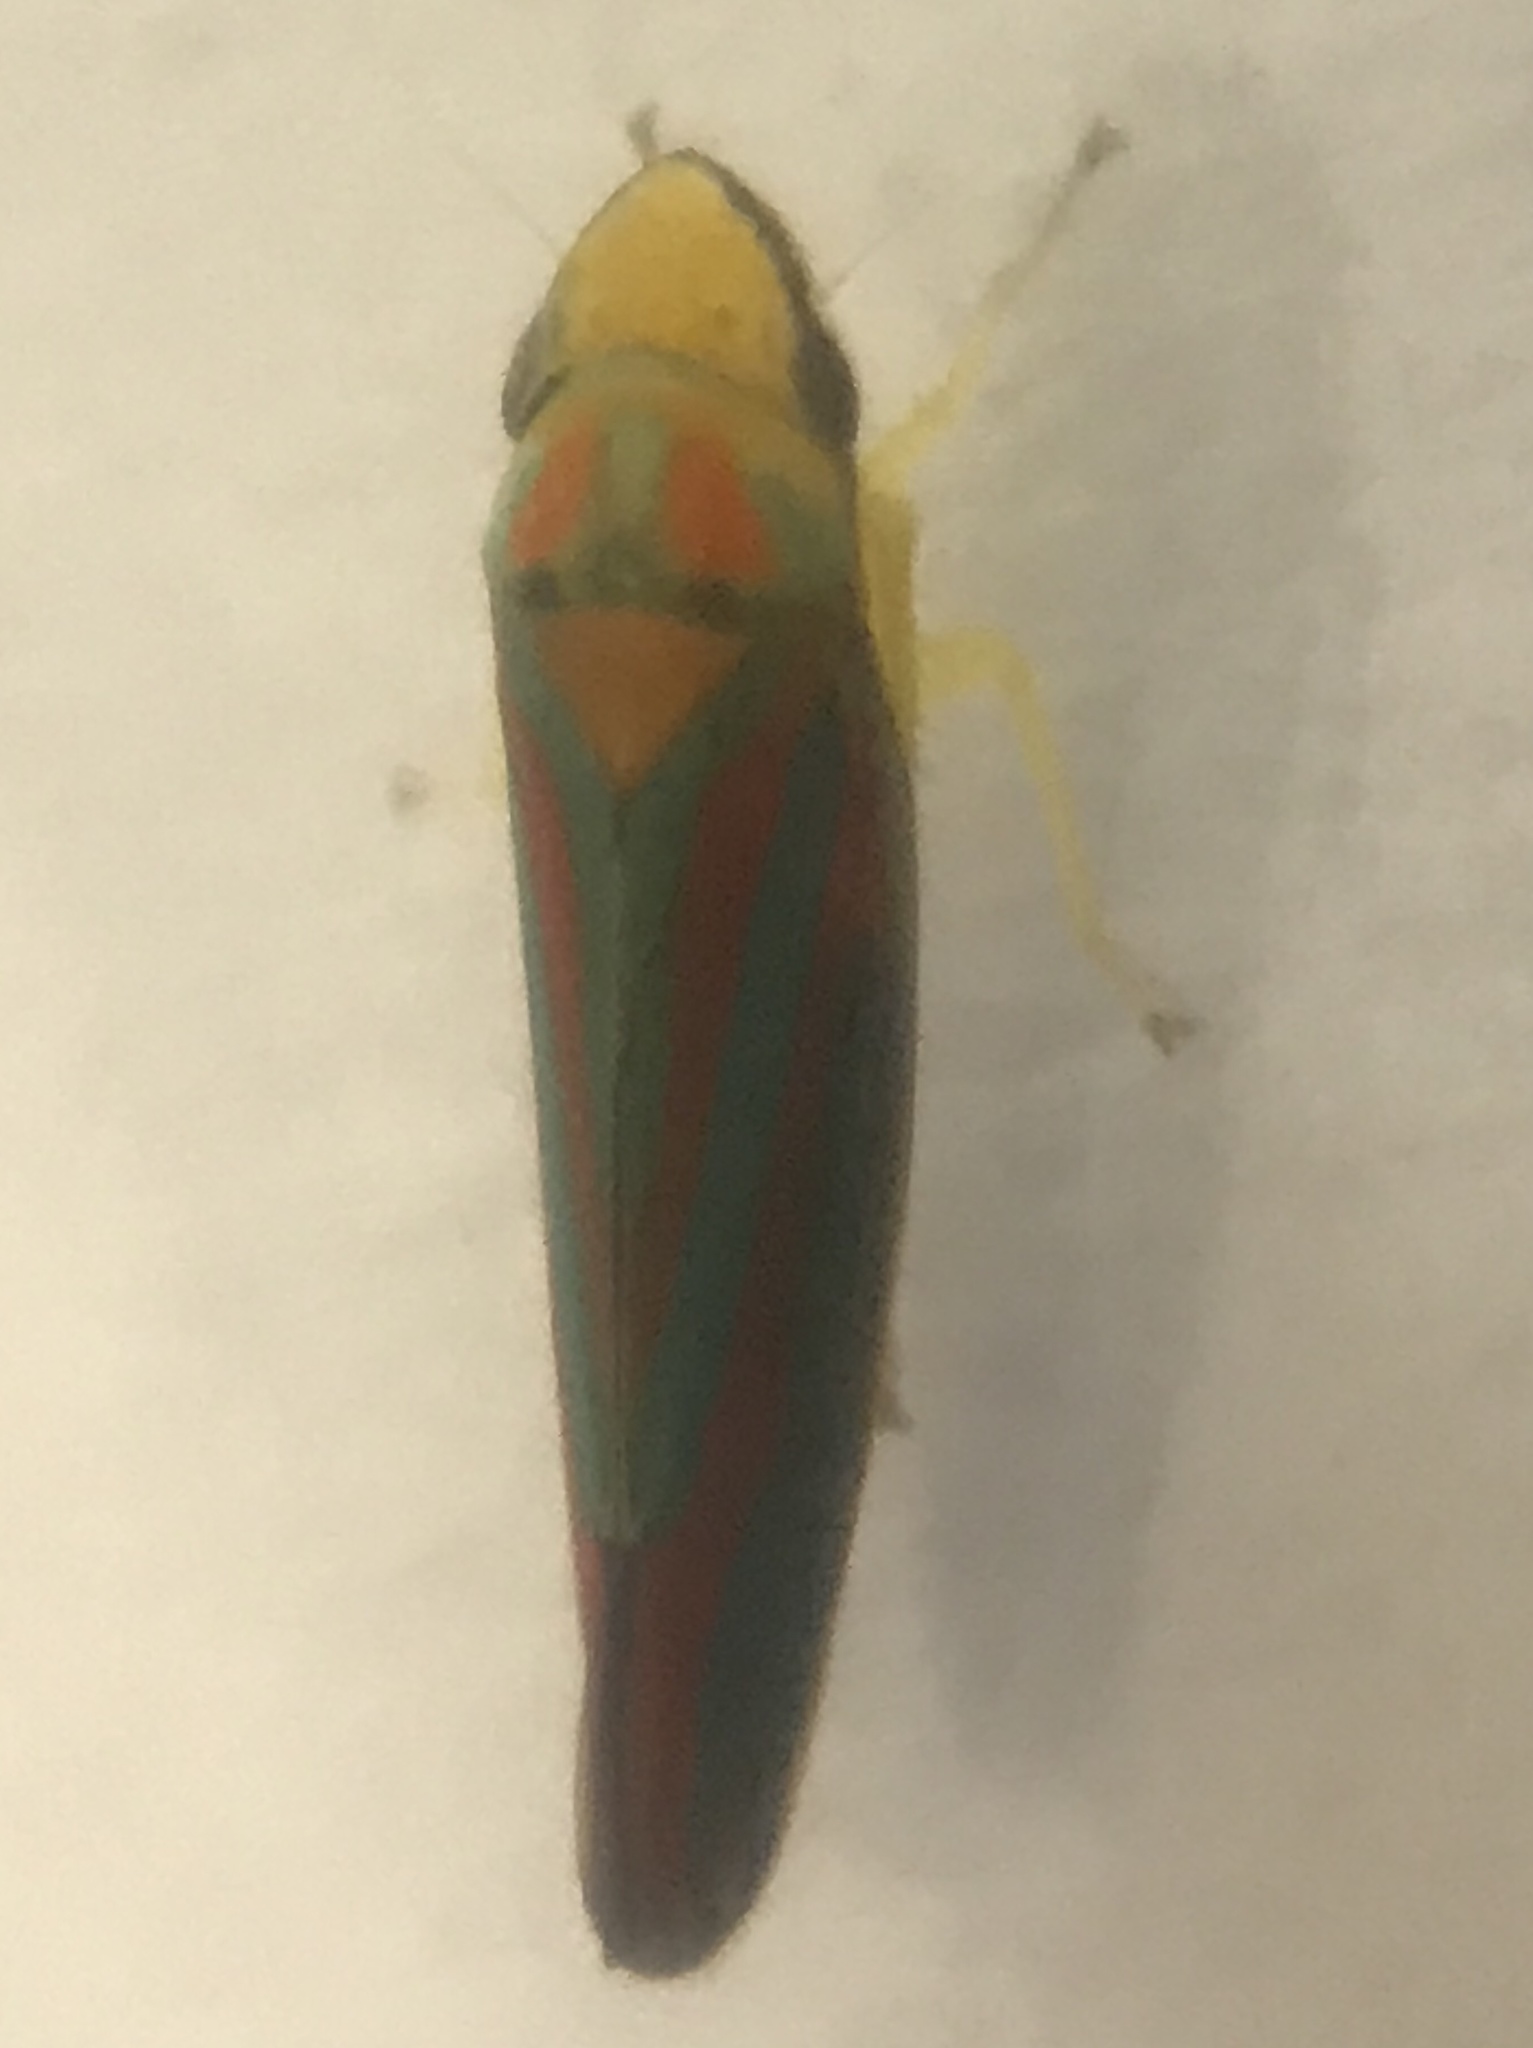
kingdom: Animalia
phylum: Arthropoda
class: Insecta
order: Hemiptera
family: Cicadellidae
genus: Graphocephala
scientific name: Graphocephala coccinea
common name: Candy-striped leafhopper
